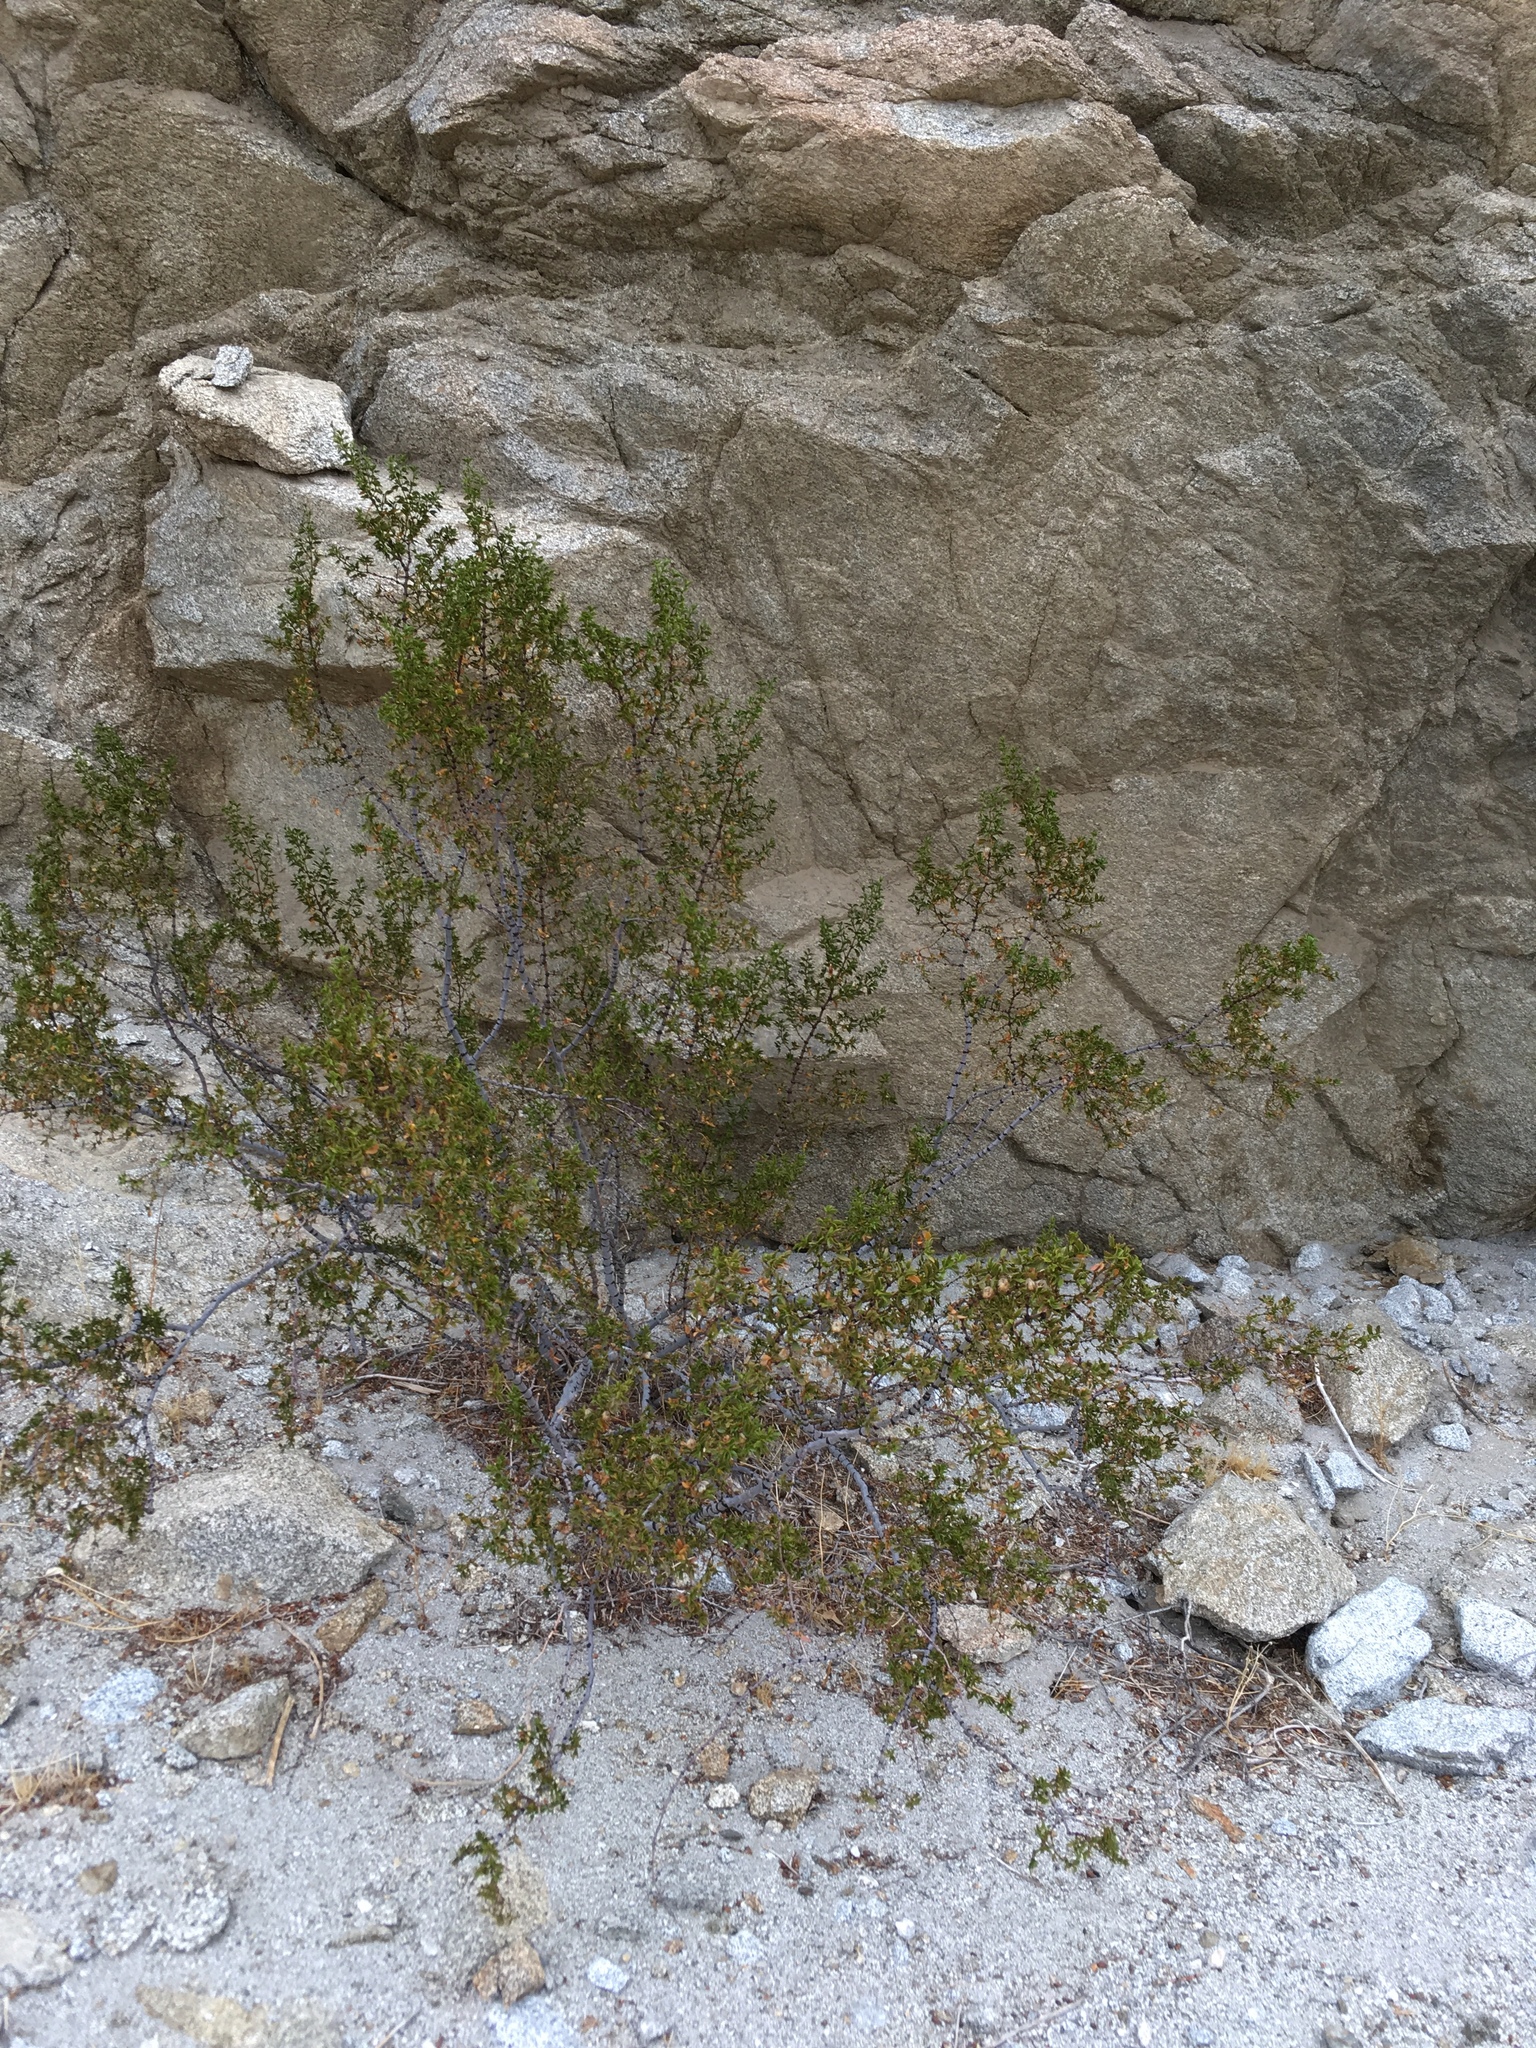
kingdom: Plantae
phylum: Tracheophyta
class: Magnoliopsida
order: Zygophyllales
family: Zygophyllaceae
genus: Larrea
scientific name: Larrea tridentata
